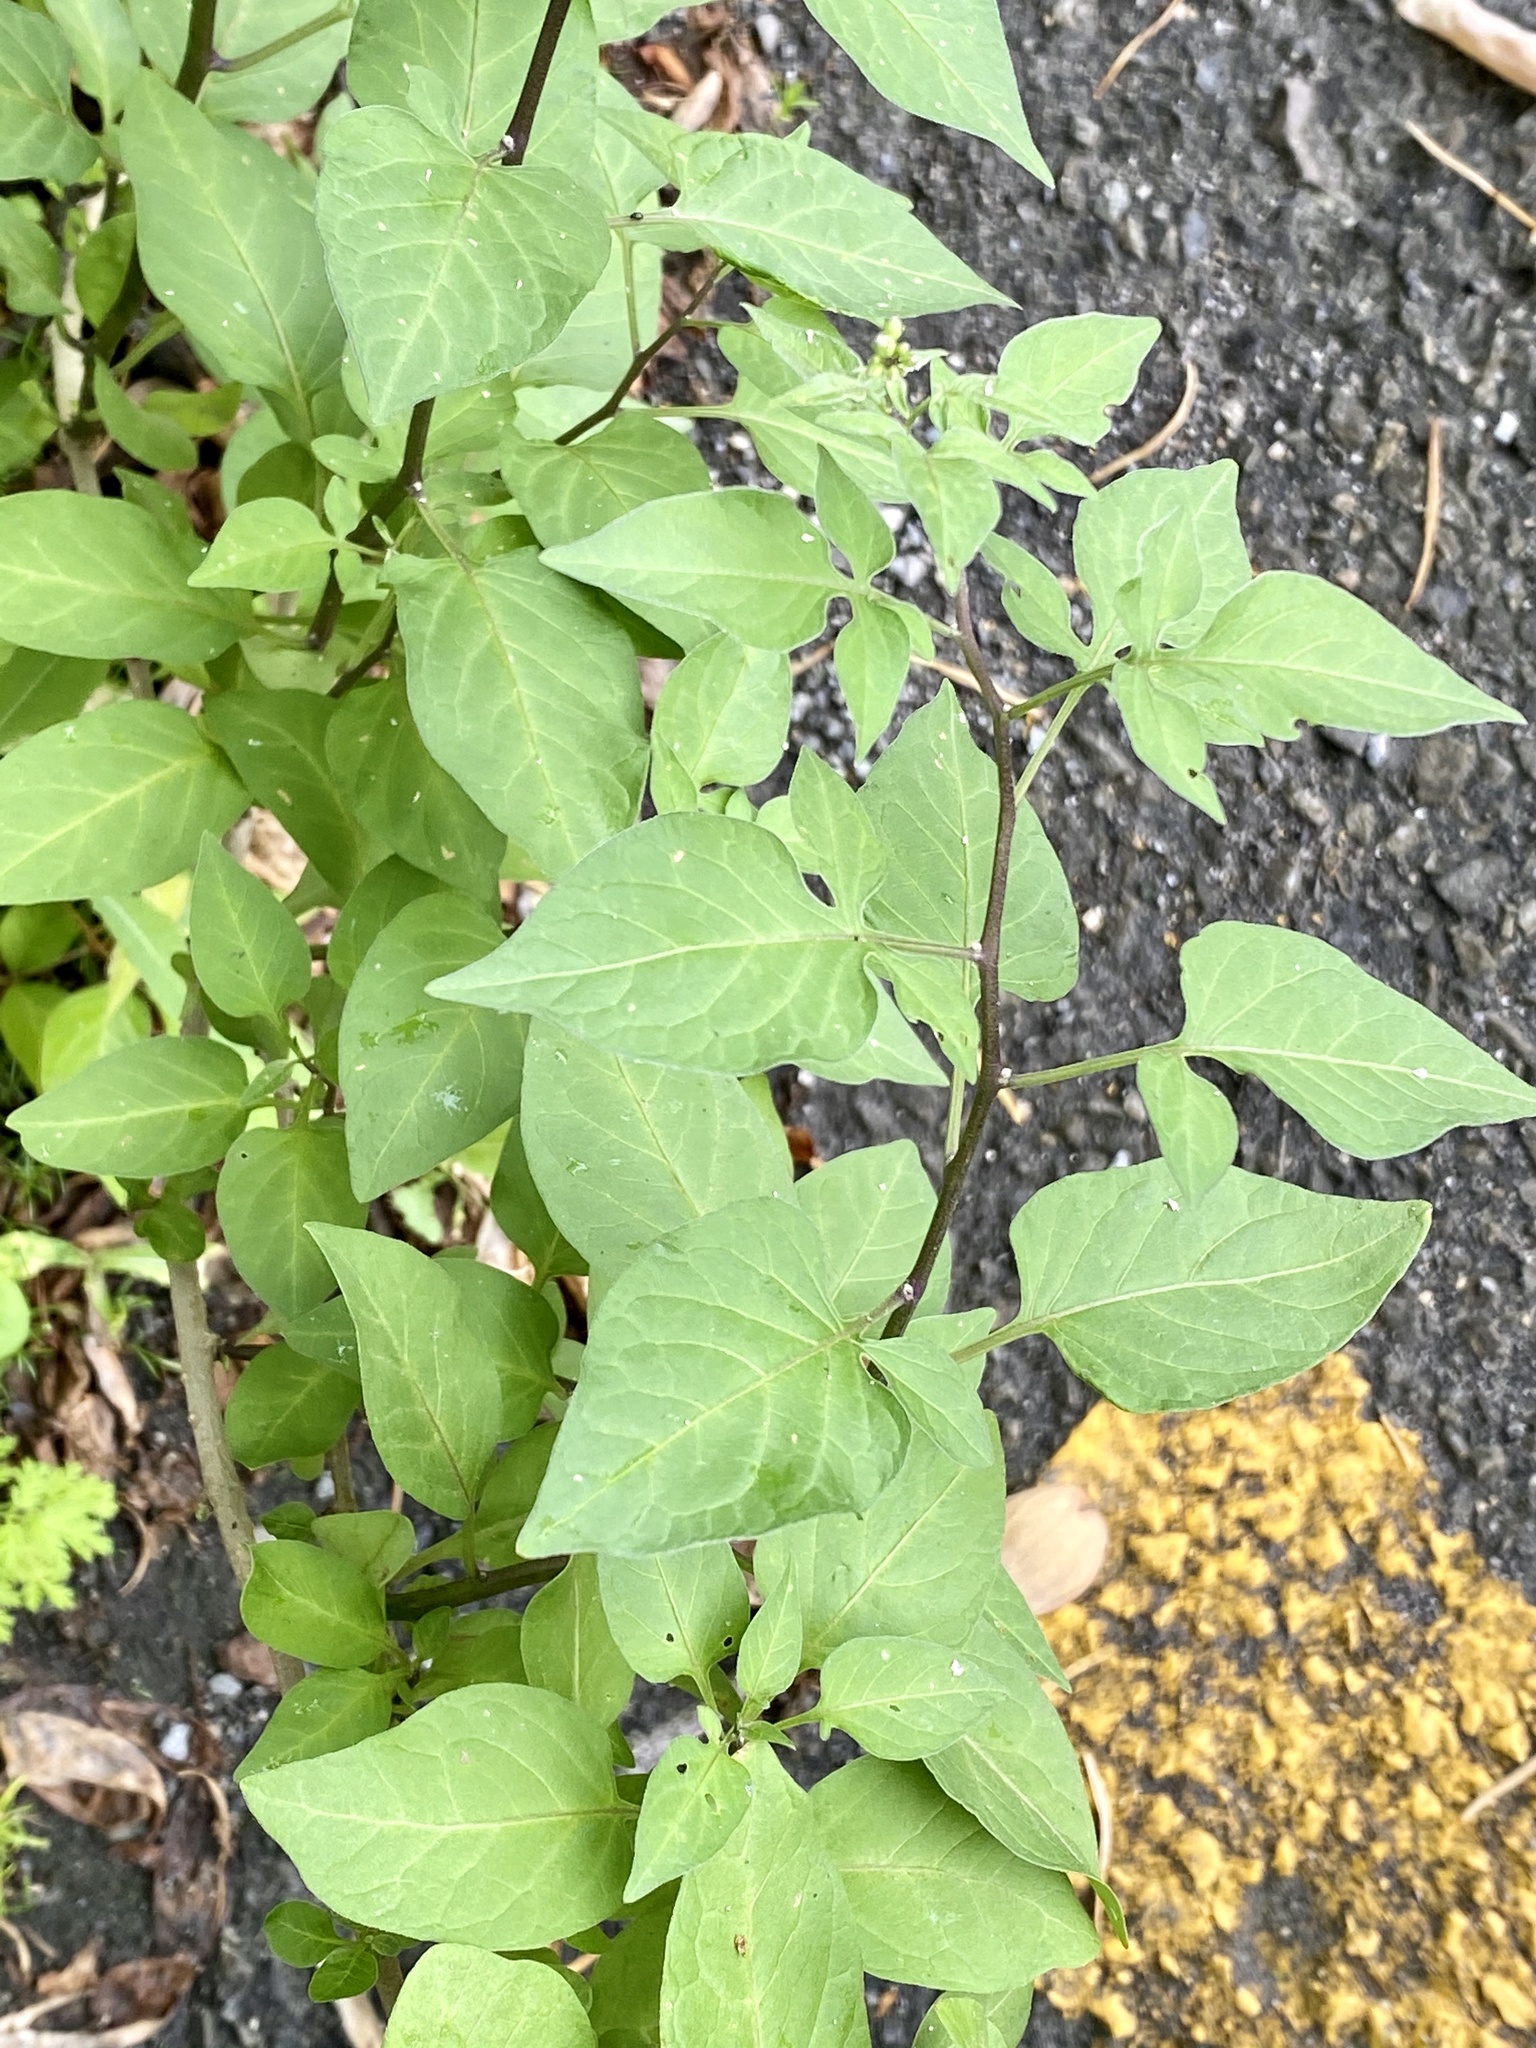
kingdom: Plantae
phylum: Tracheophyta
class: Magnoliopsida
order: Solanales
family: Solanaceae
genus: Solanum
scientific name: Solanum dulcamara
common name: Climbing nightshade
